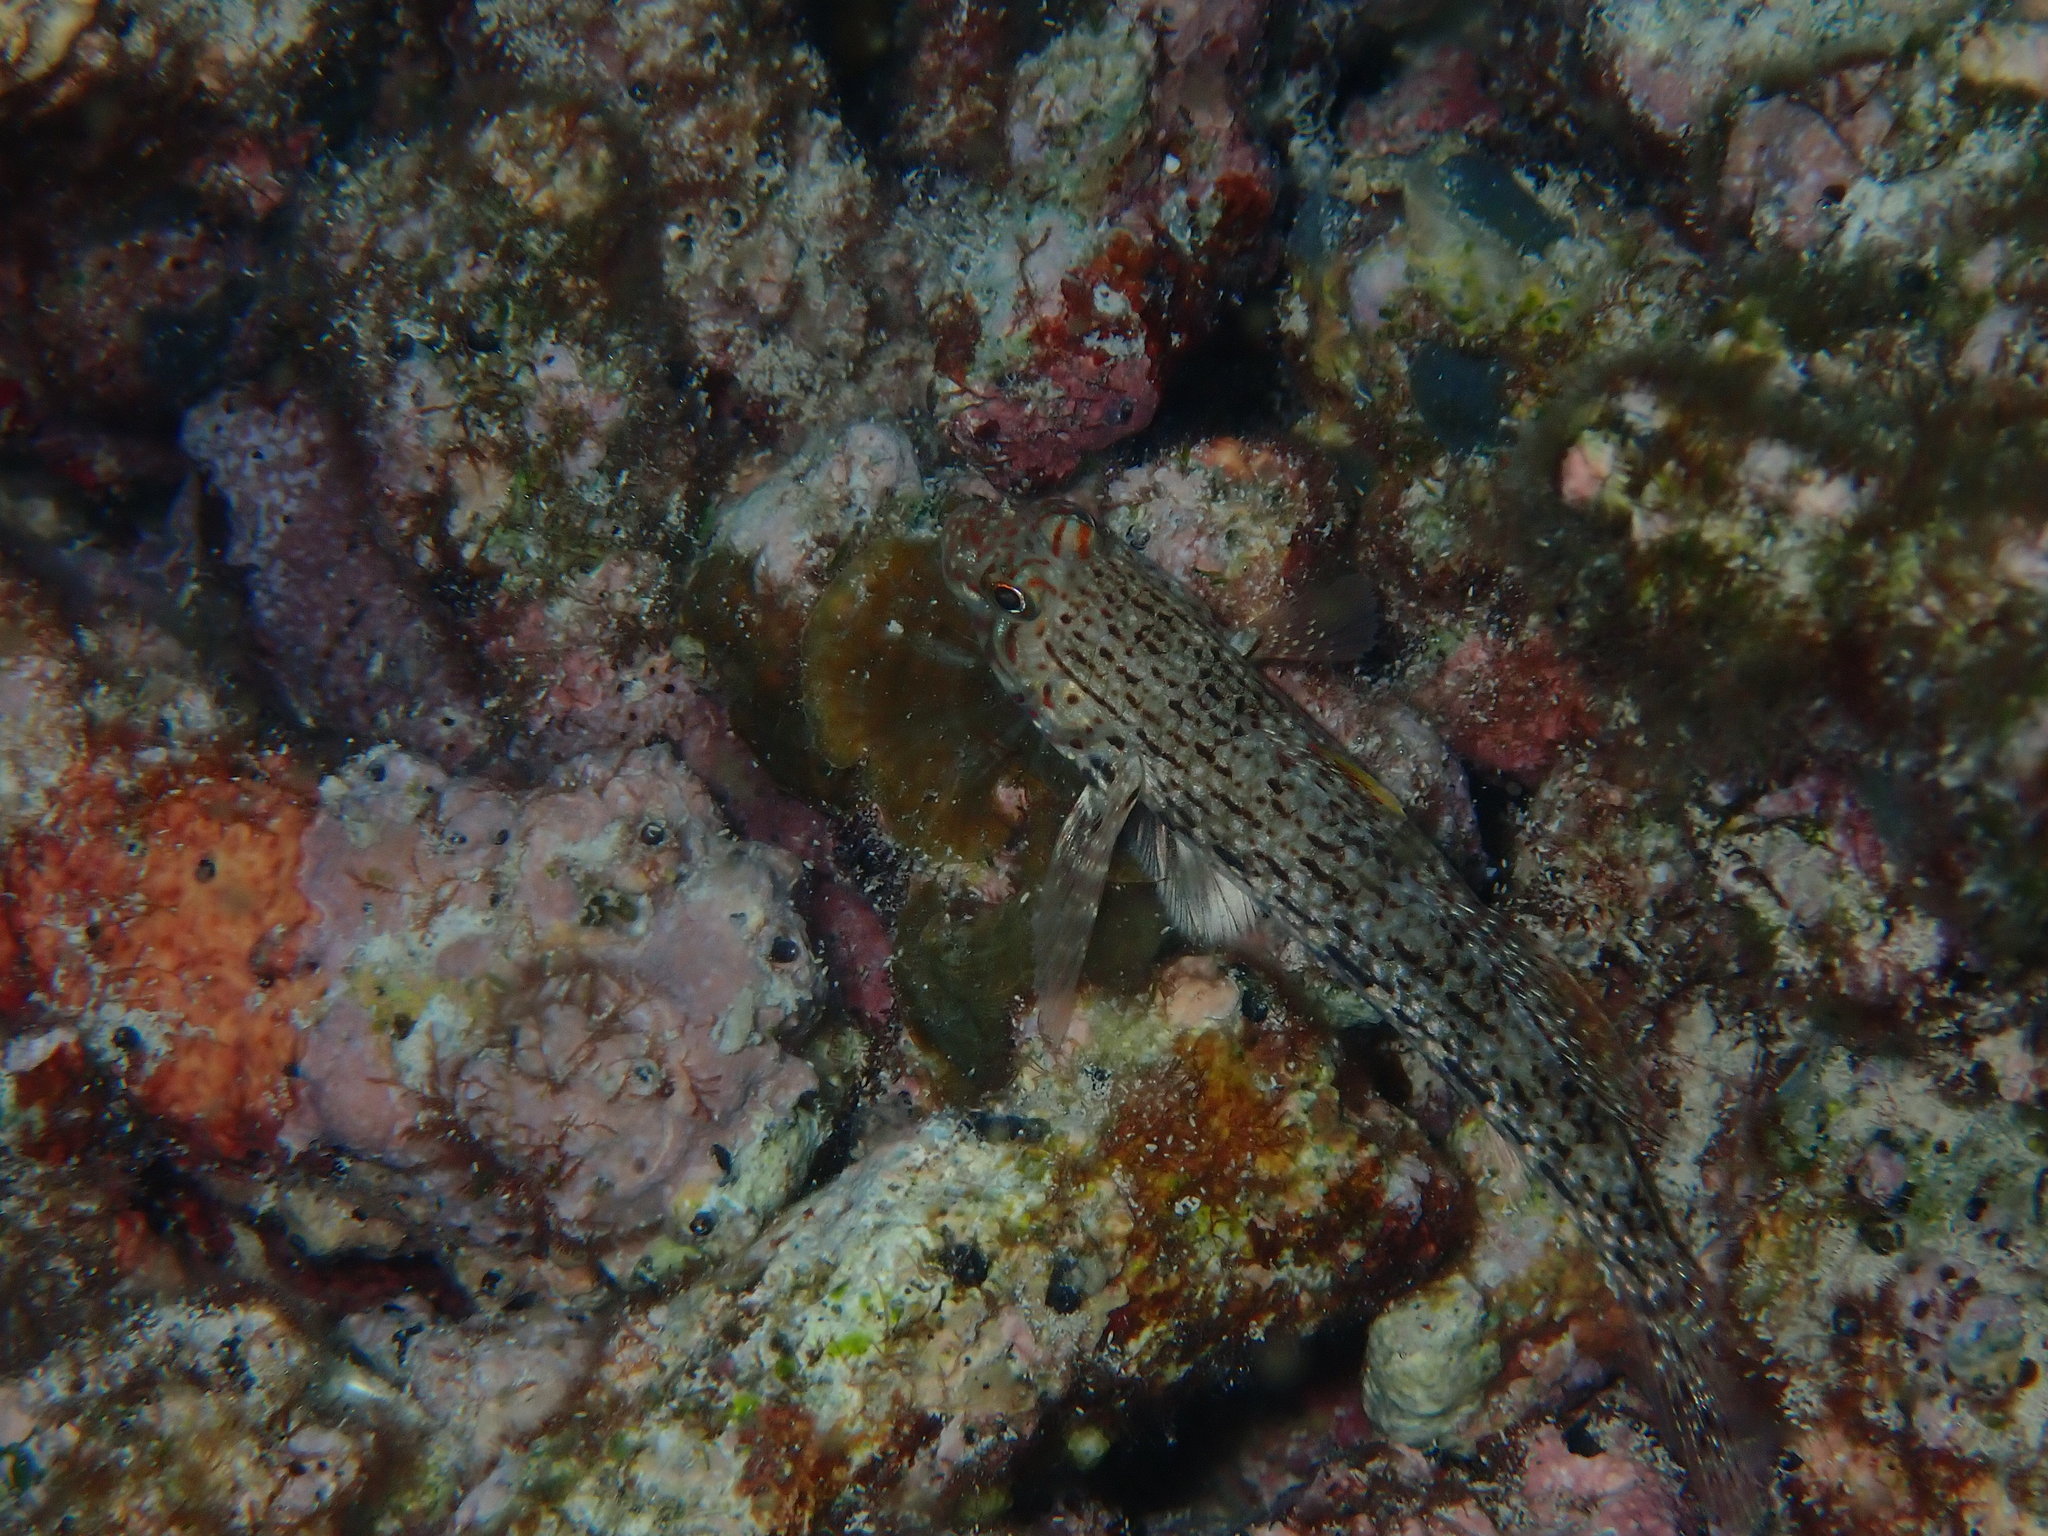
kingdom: Animalia
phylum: Chordata
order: Perciformes
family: Gobiidae
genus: Istigobius
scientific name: Istigobius ornatus
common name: Ornate goby
